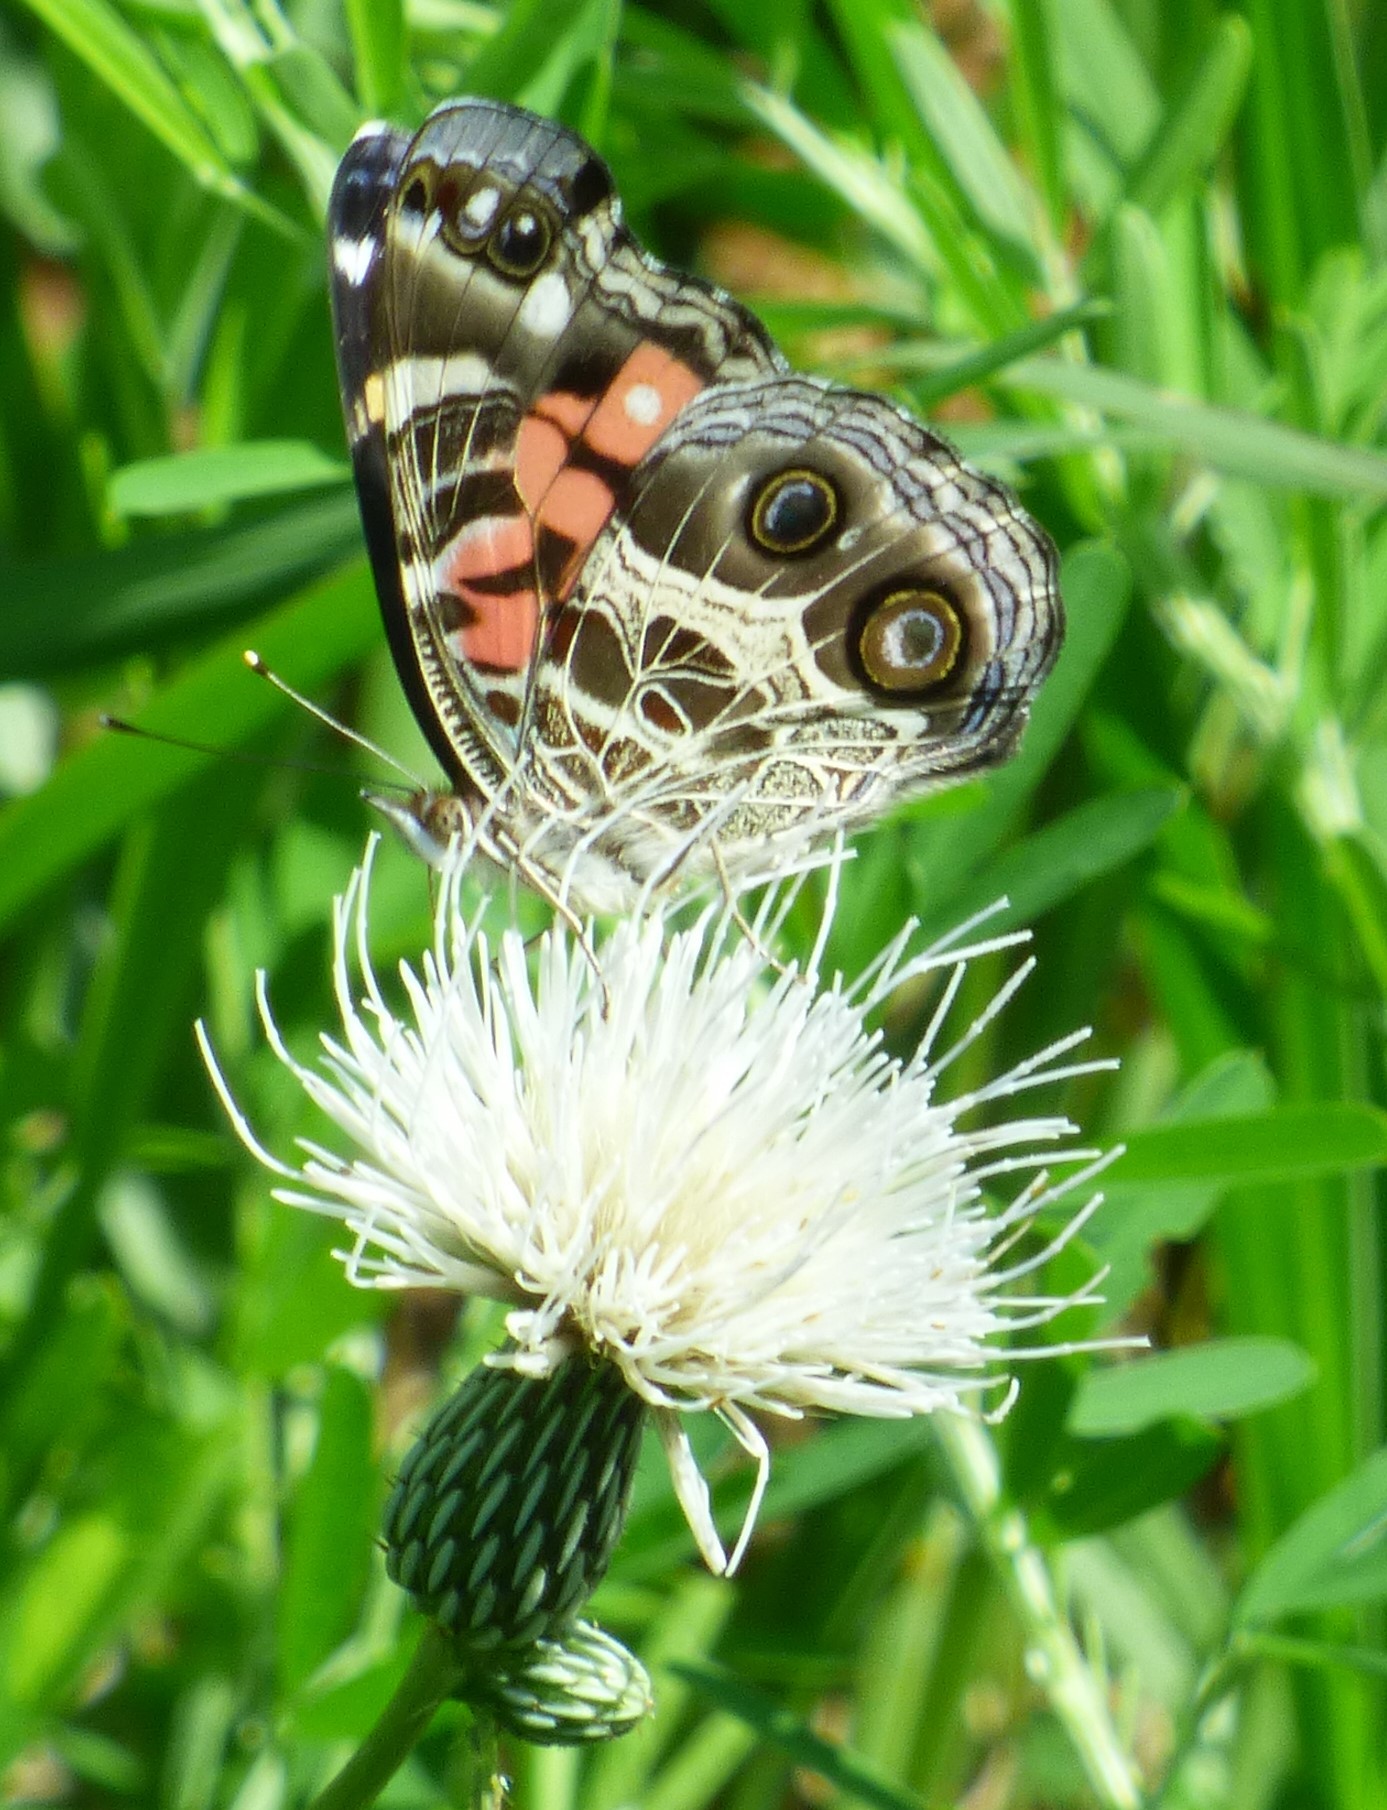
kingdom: Animalia
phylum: Arthropoda
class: Insecta
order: Lepidoptera
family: Nymphalidae
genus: Vanessa
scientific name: Vanessa virginiensis
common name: American lady
